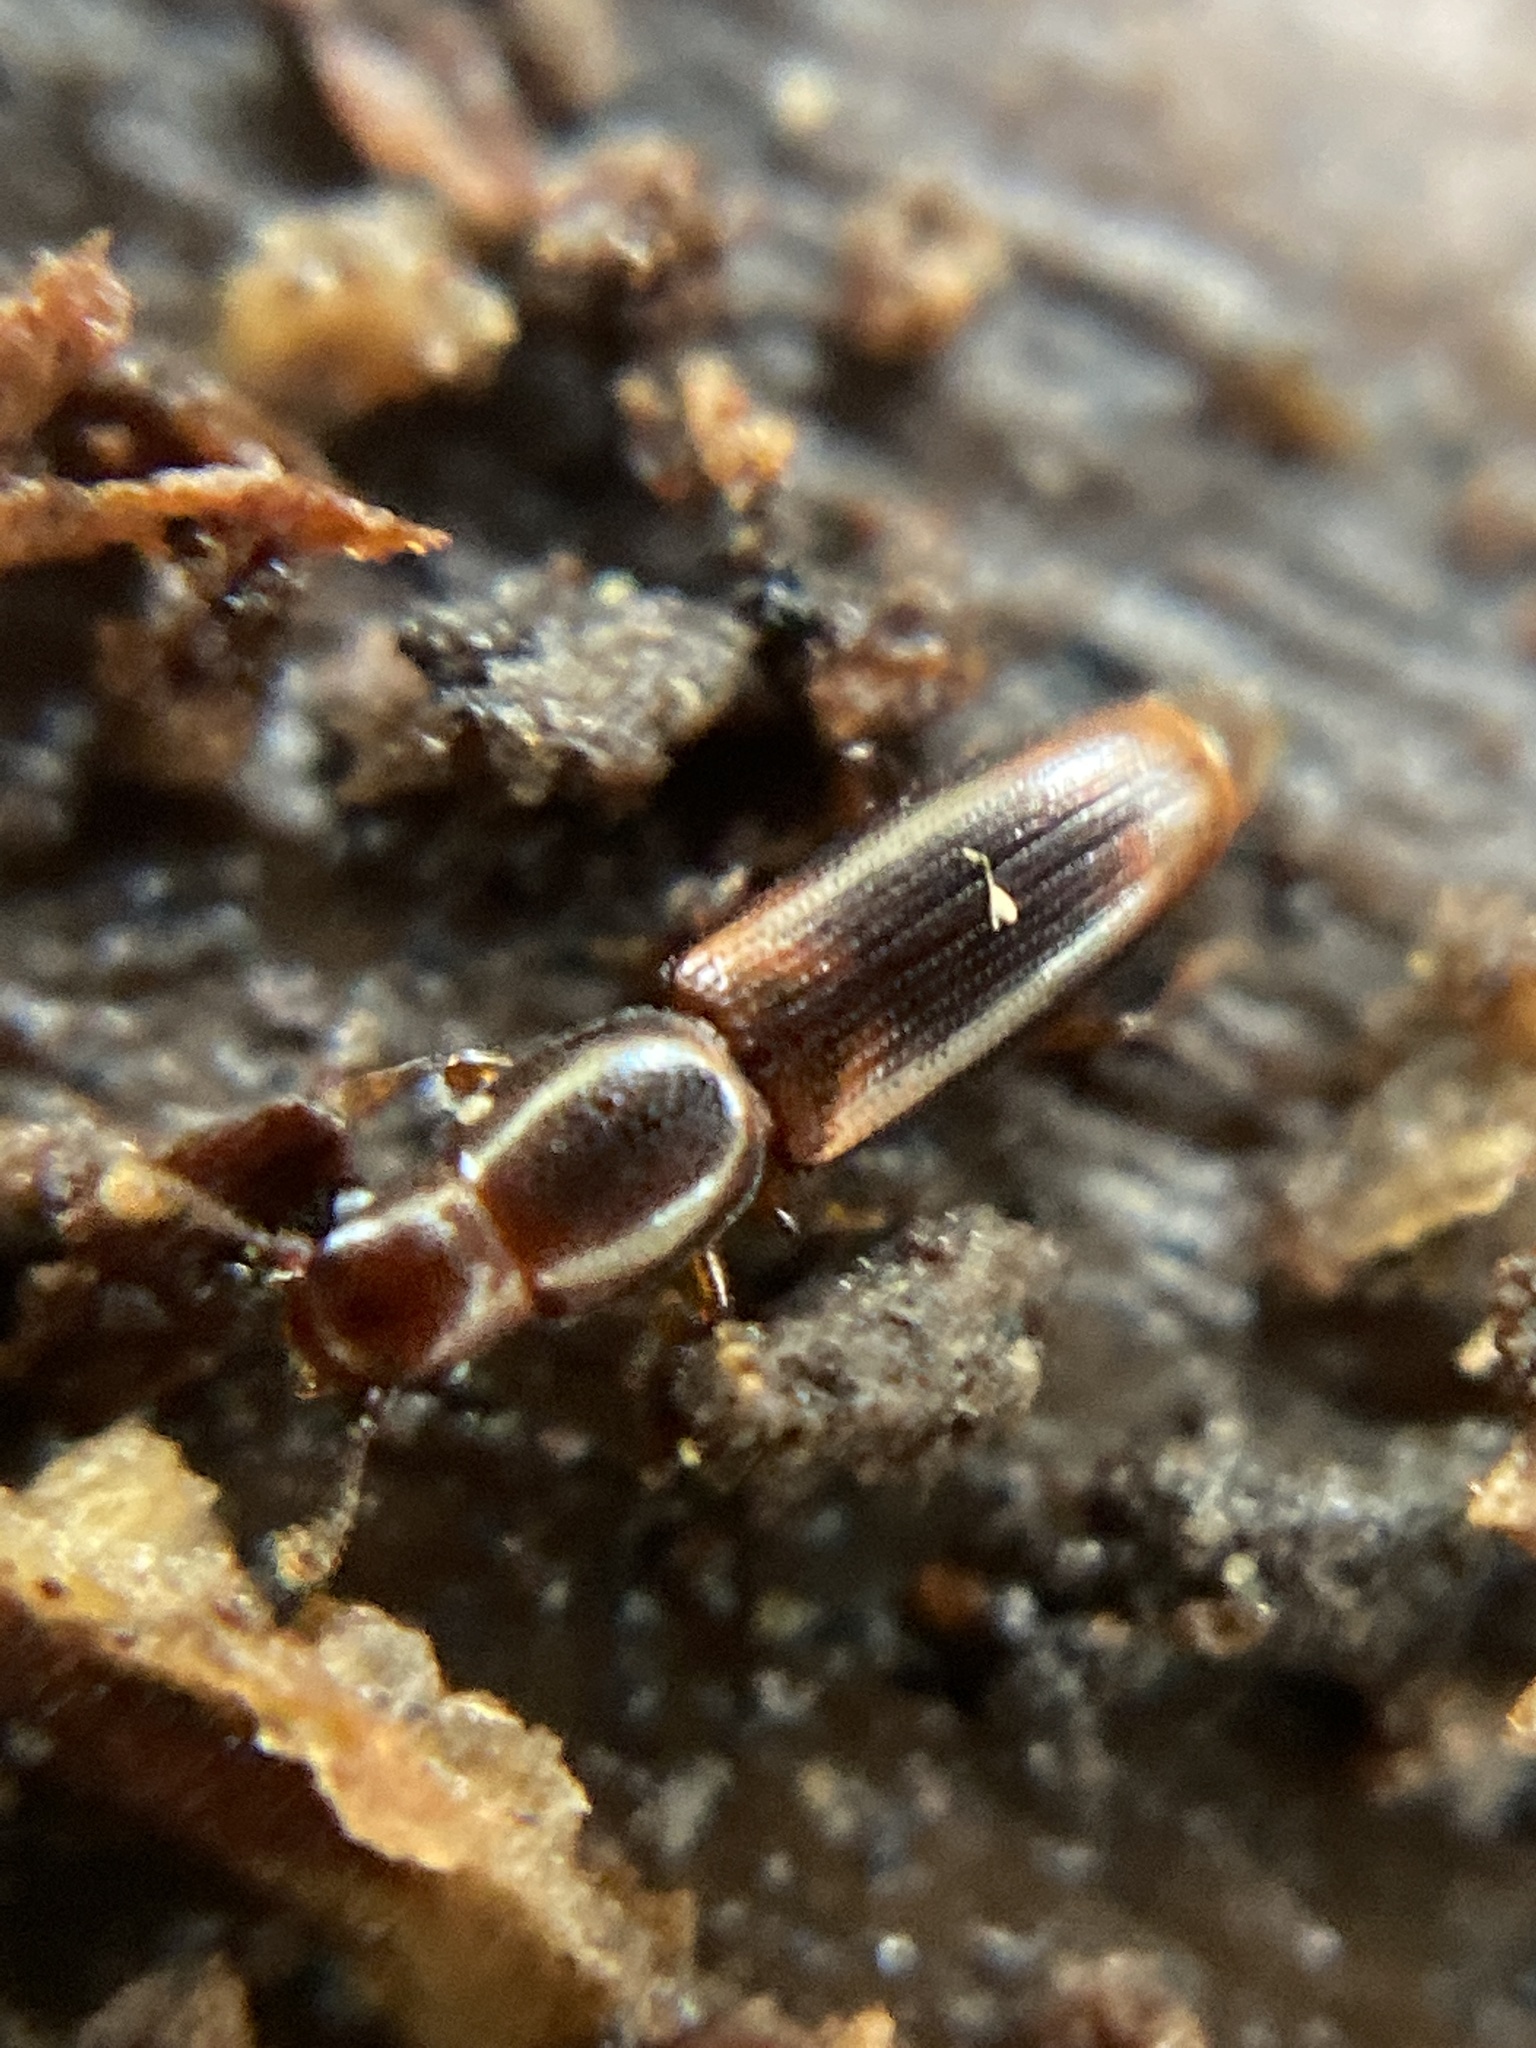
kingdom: Animalia
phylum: Arthropoda
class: Insecta
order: Coleoptera
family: Monotomidae
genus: Rhizophagus
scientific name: Rhizophagus dispar
